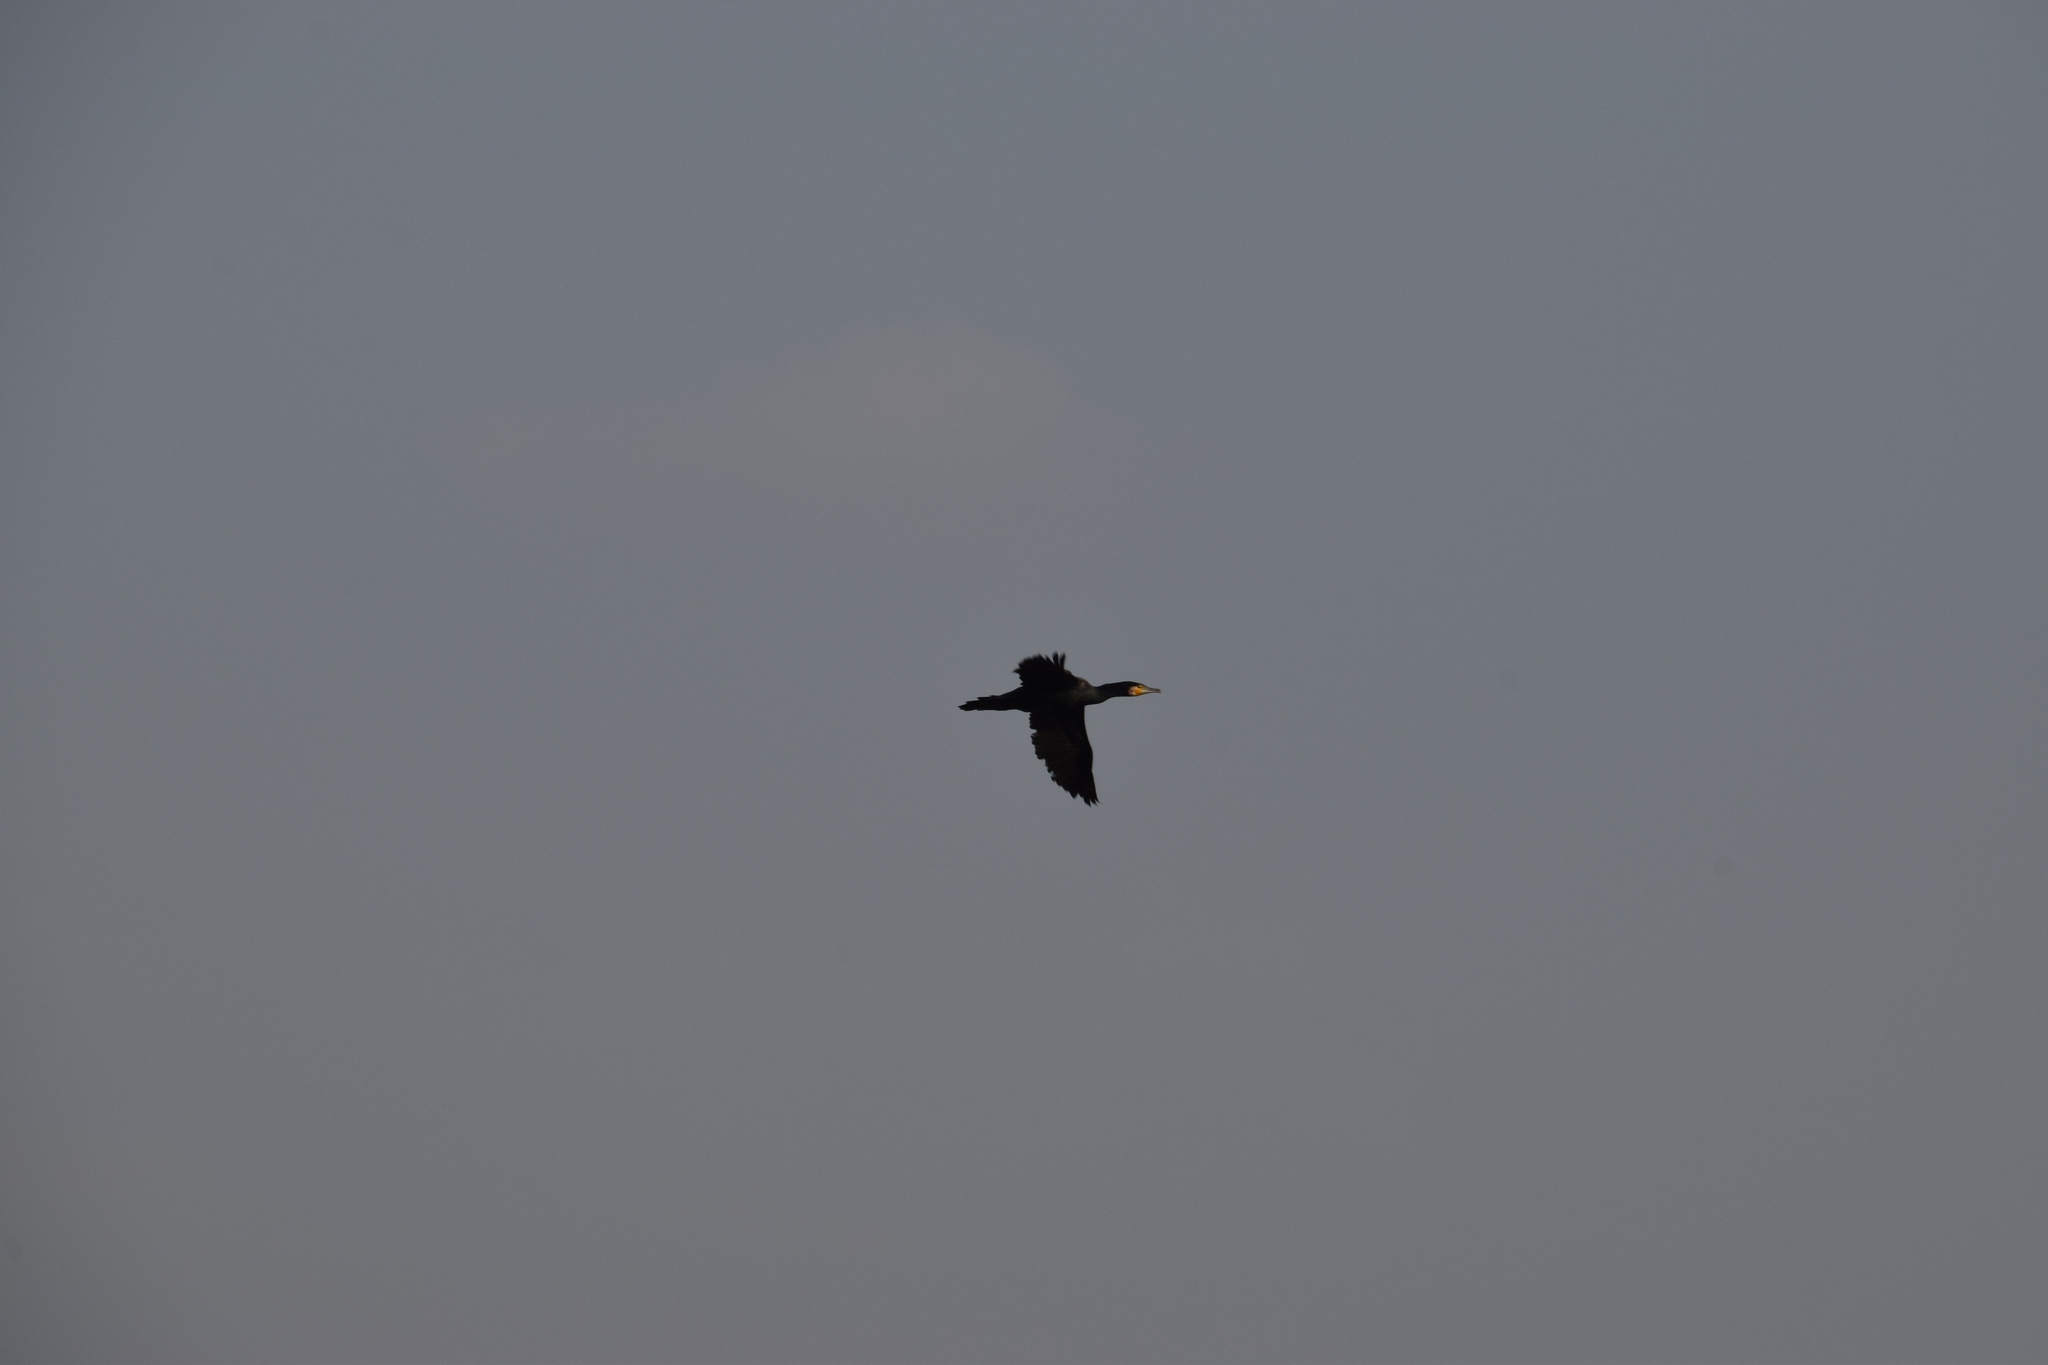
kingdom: Animalia
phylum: Chordata
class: Aves
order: Suliformes
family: Phalacrocoracidae
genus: Phalacrocorax
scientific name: Phalacrocorax carbo
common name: Great cormorant
